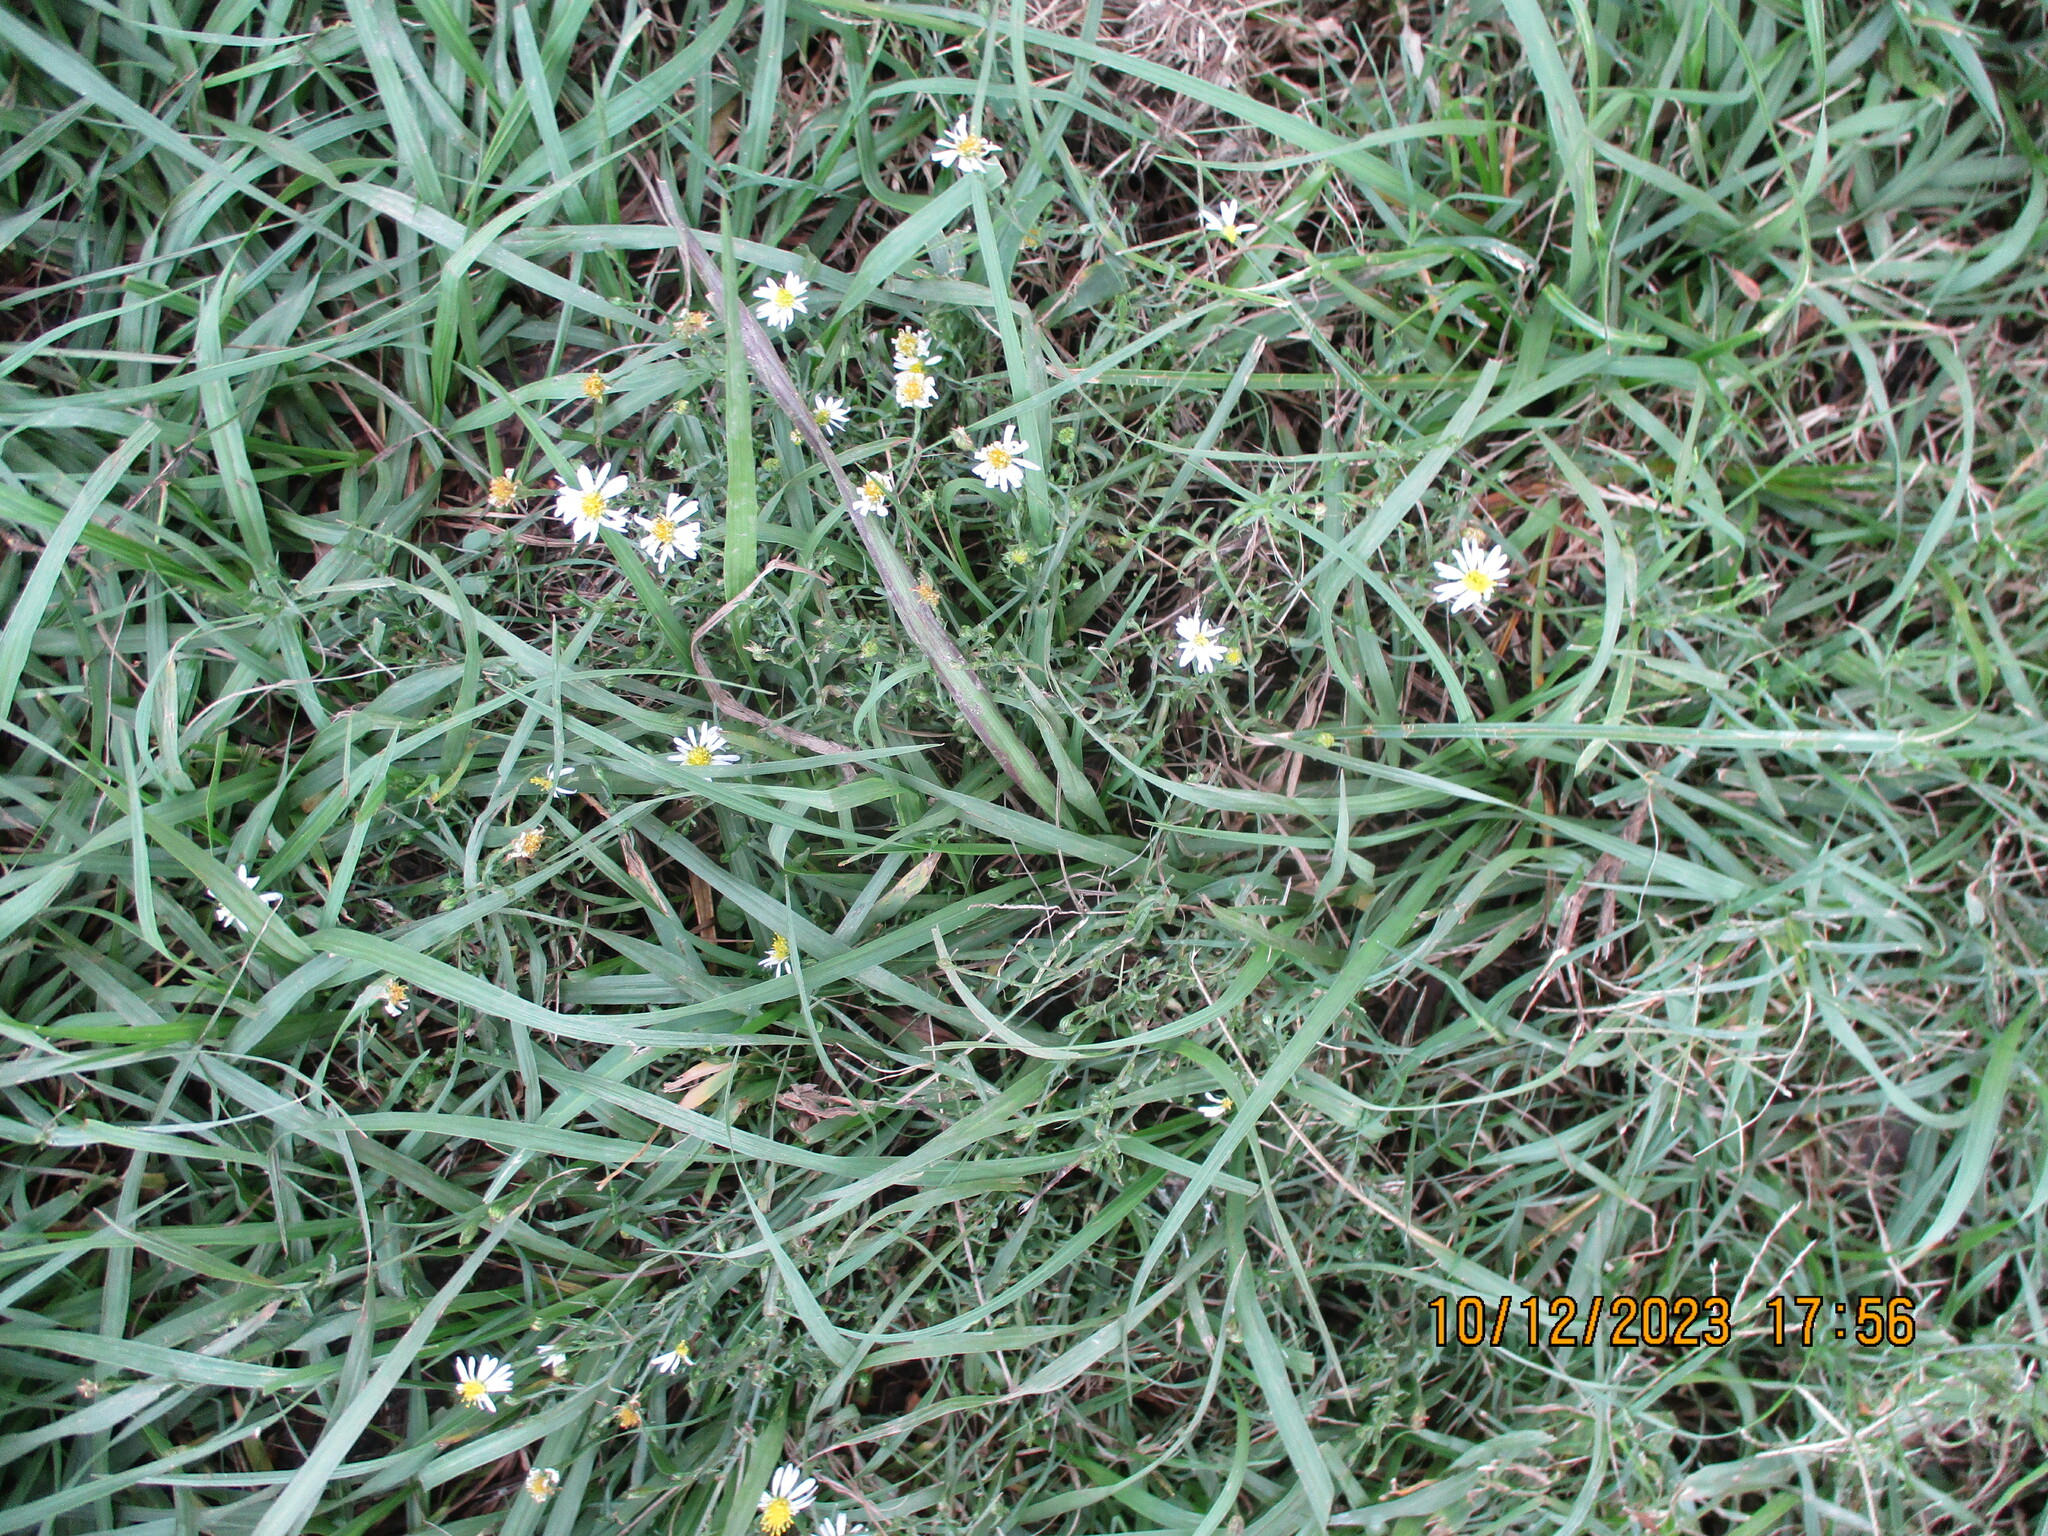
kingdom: Plantae
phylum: Tracheophyta
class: Magnoliopsida
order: Asterales
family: Asteraceae
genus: Symphyotrichum
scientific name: Symphyotrichum subulatum
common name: Annual saltmarsh aster
